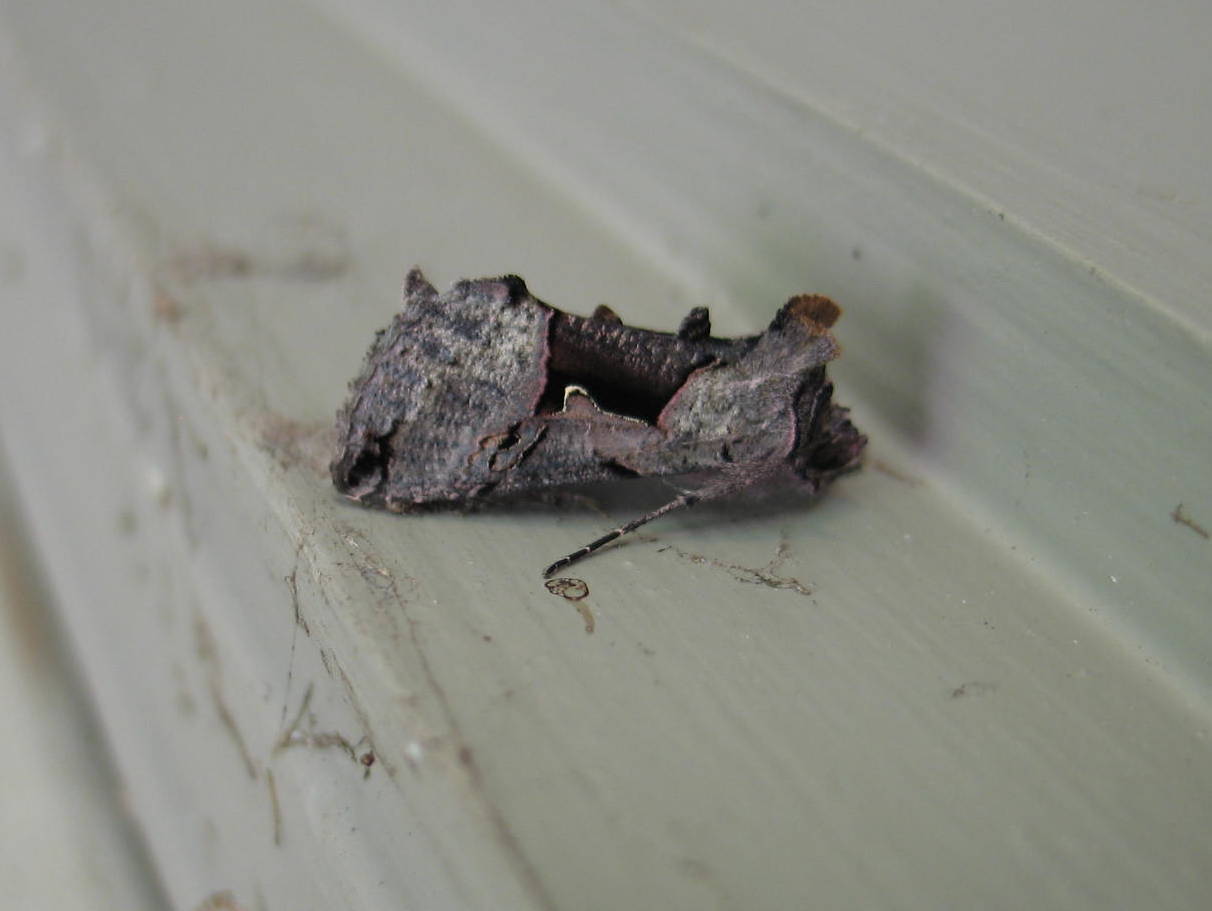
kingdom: Animalia
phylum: Arthropoda
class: Insecta
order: Lepidoptera
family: Noctuidae
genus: Autographa
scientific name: Autographa ampla
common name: Large looper moth
